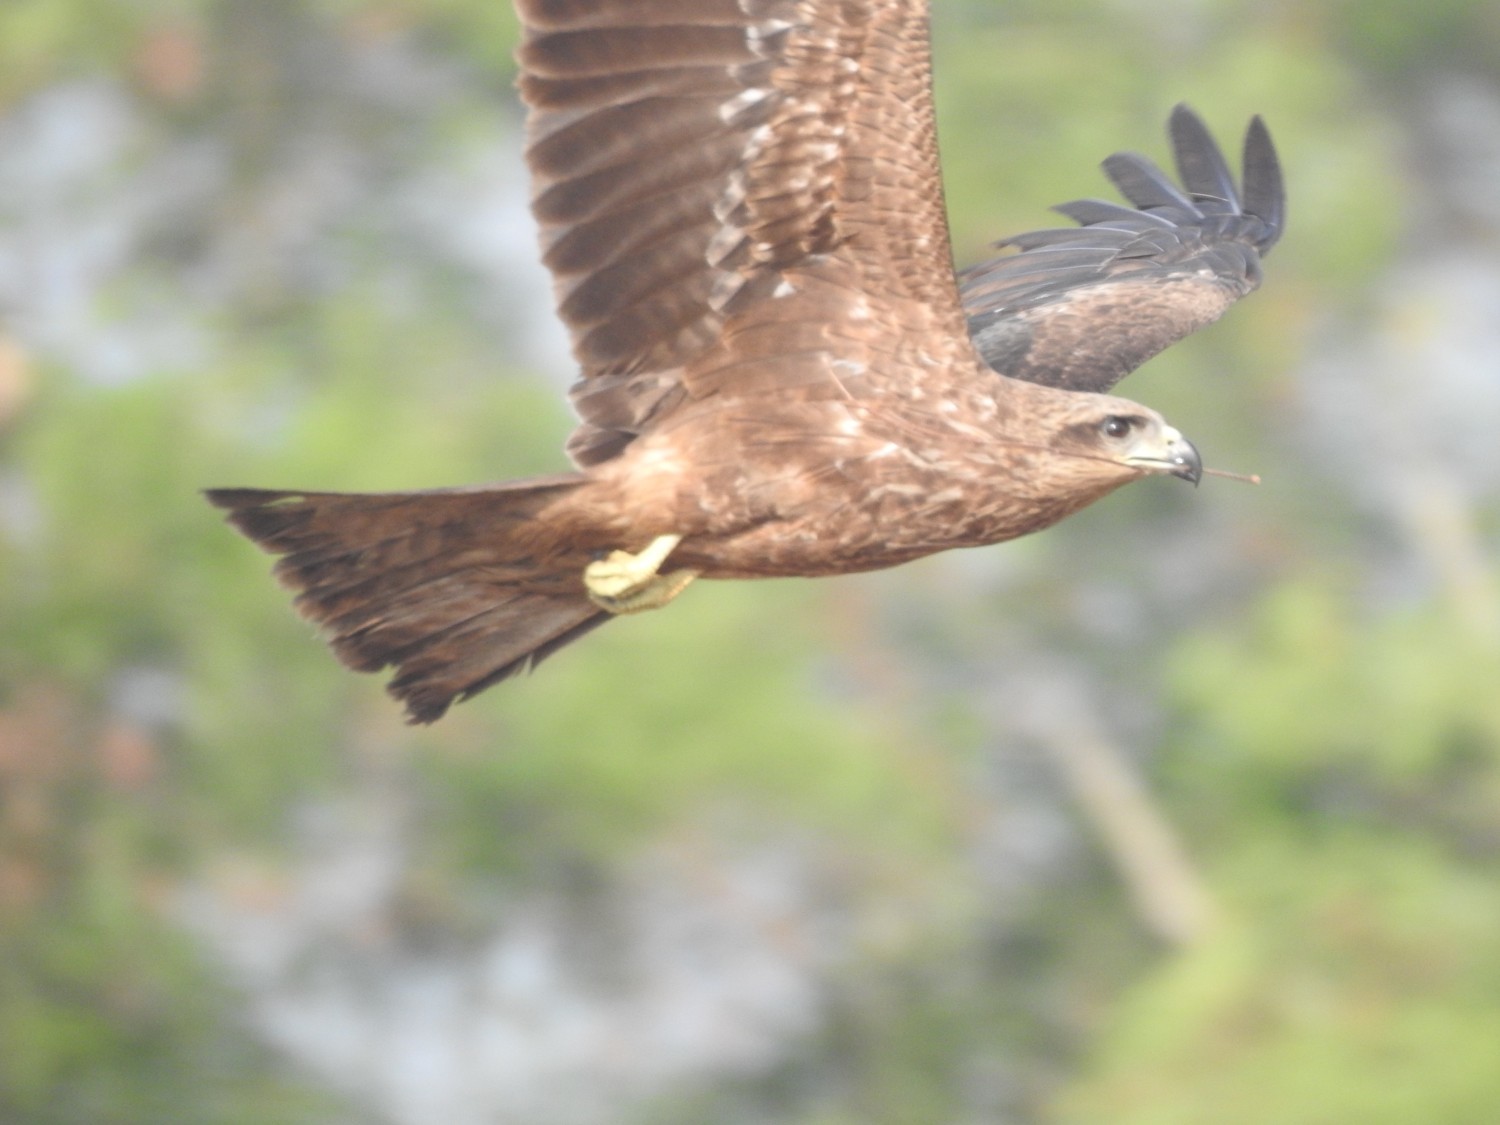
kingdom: Animalia
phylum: Chordata
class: Aves
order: Accipitriformes
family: Accipitridae
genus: Milvus
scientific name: Milvus migrans
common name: Black kite
